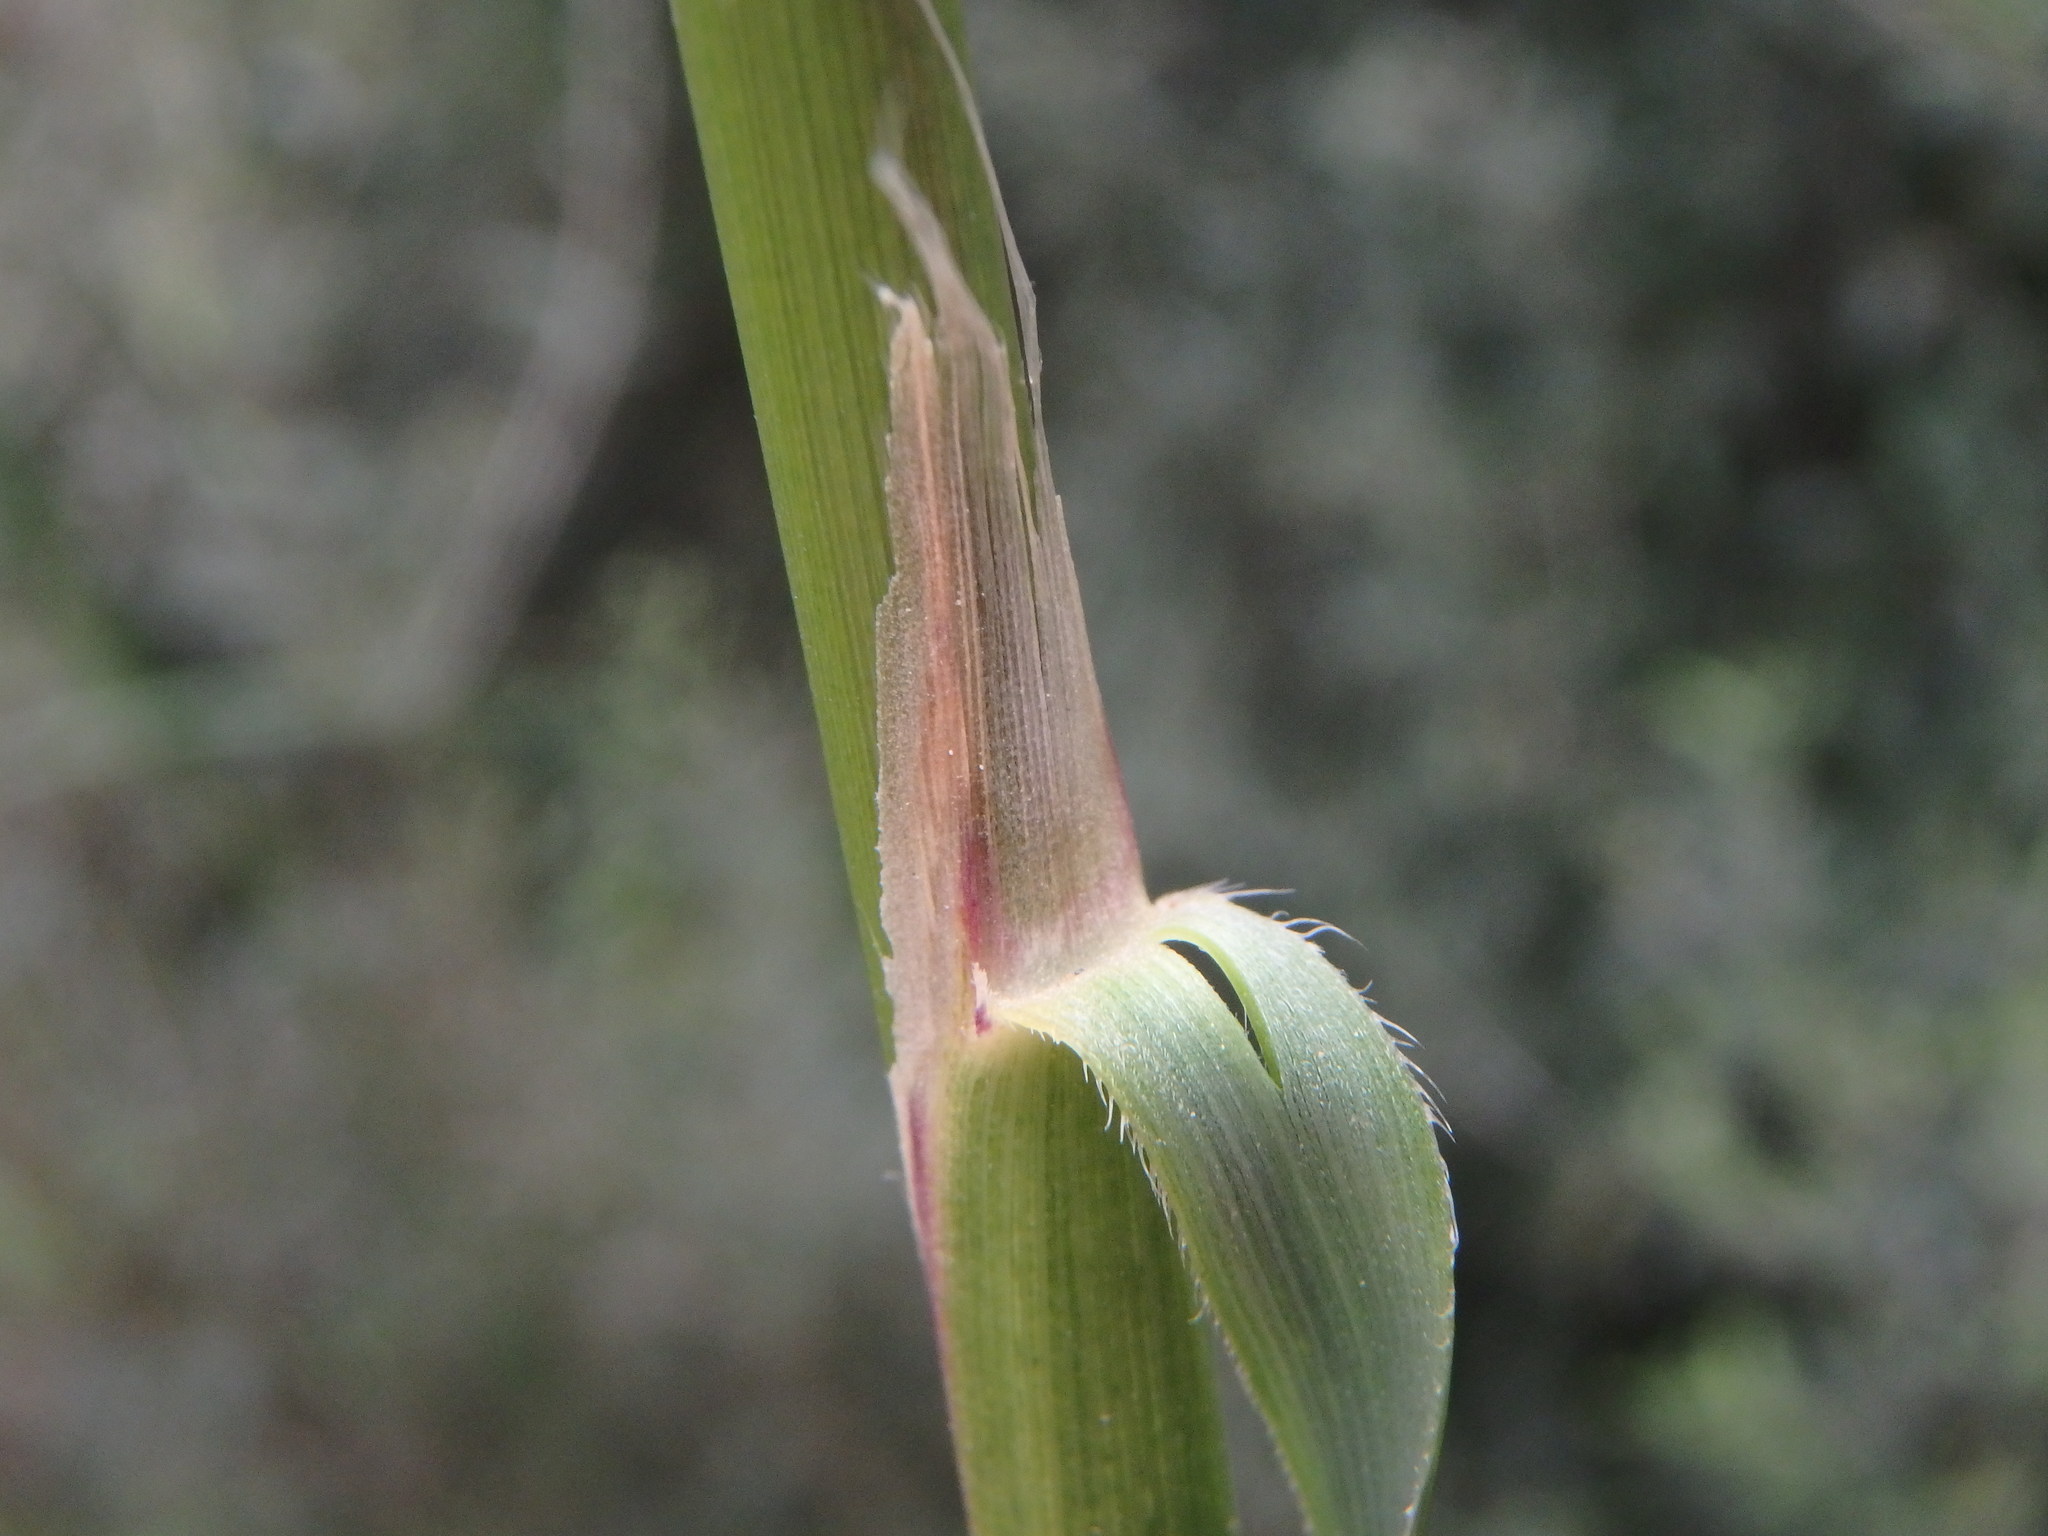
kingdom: Plantae
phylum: Tracheophyta
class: Liliopsida
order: Poales
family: Poaceae
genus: Ampelodesmos
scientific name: Ampelodesmos mauritanicus
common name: Mauritanian grass
